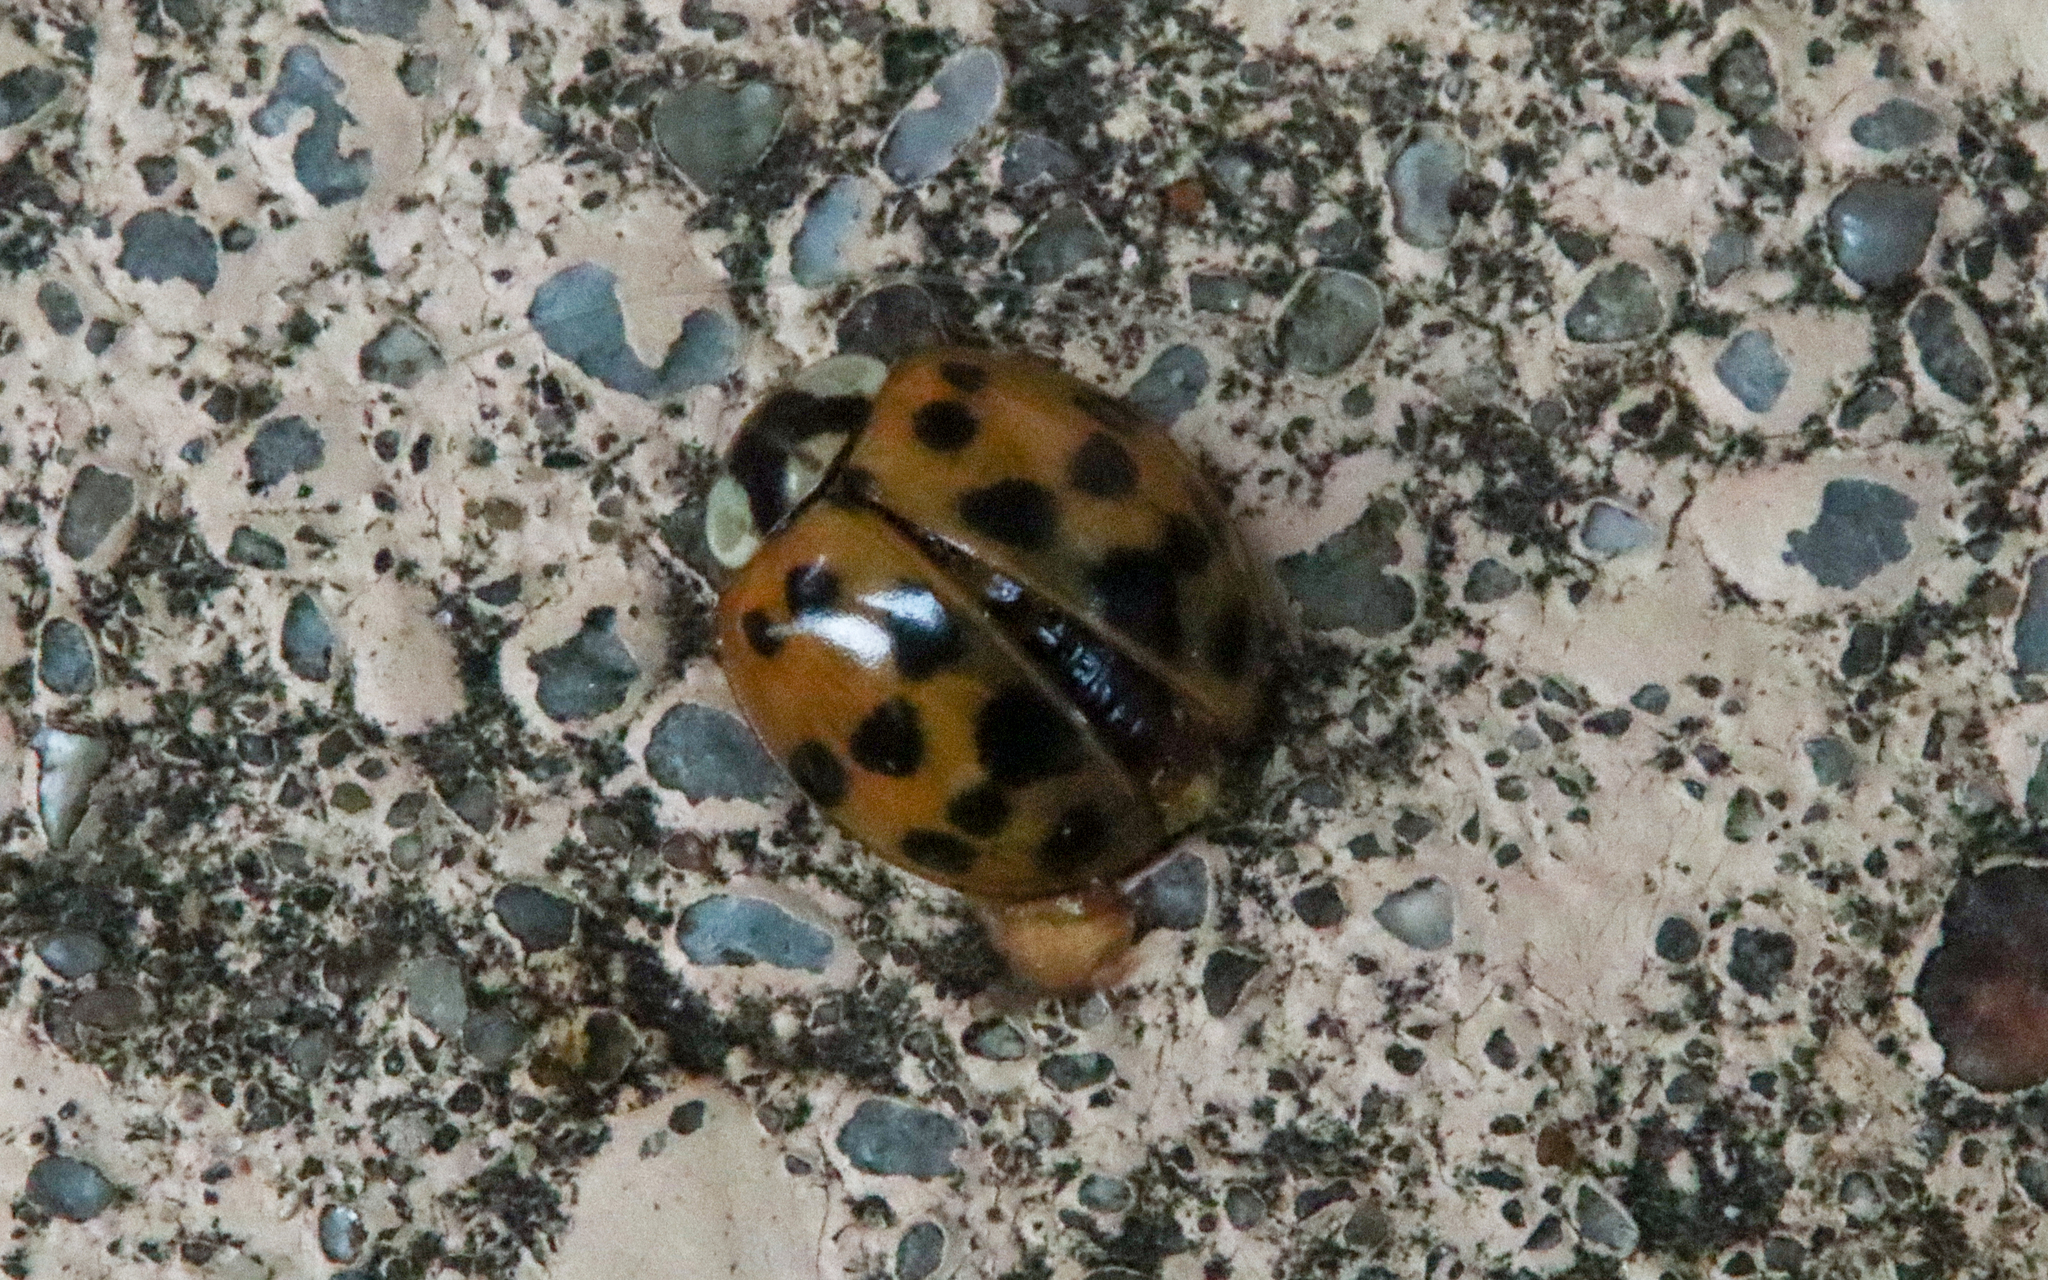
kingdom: Animalia
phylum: Arthropoda
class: Insecta
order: Coleoptera
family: Coccinellidae
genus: Harmonia
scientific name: Harmonia axyridis
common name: Harlequin ladybird
